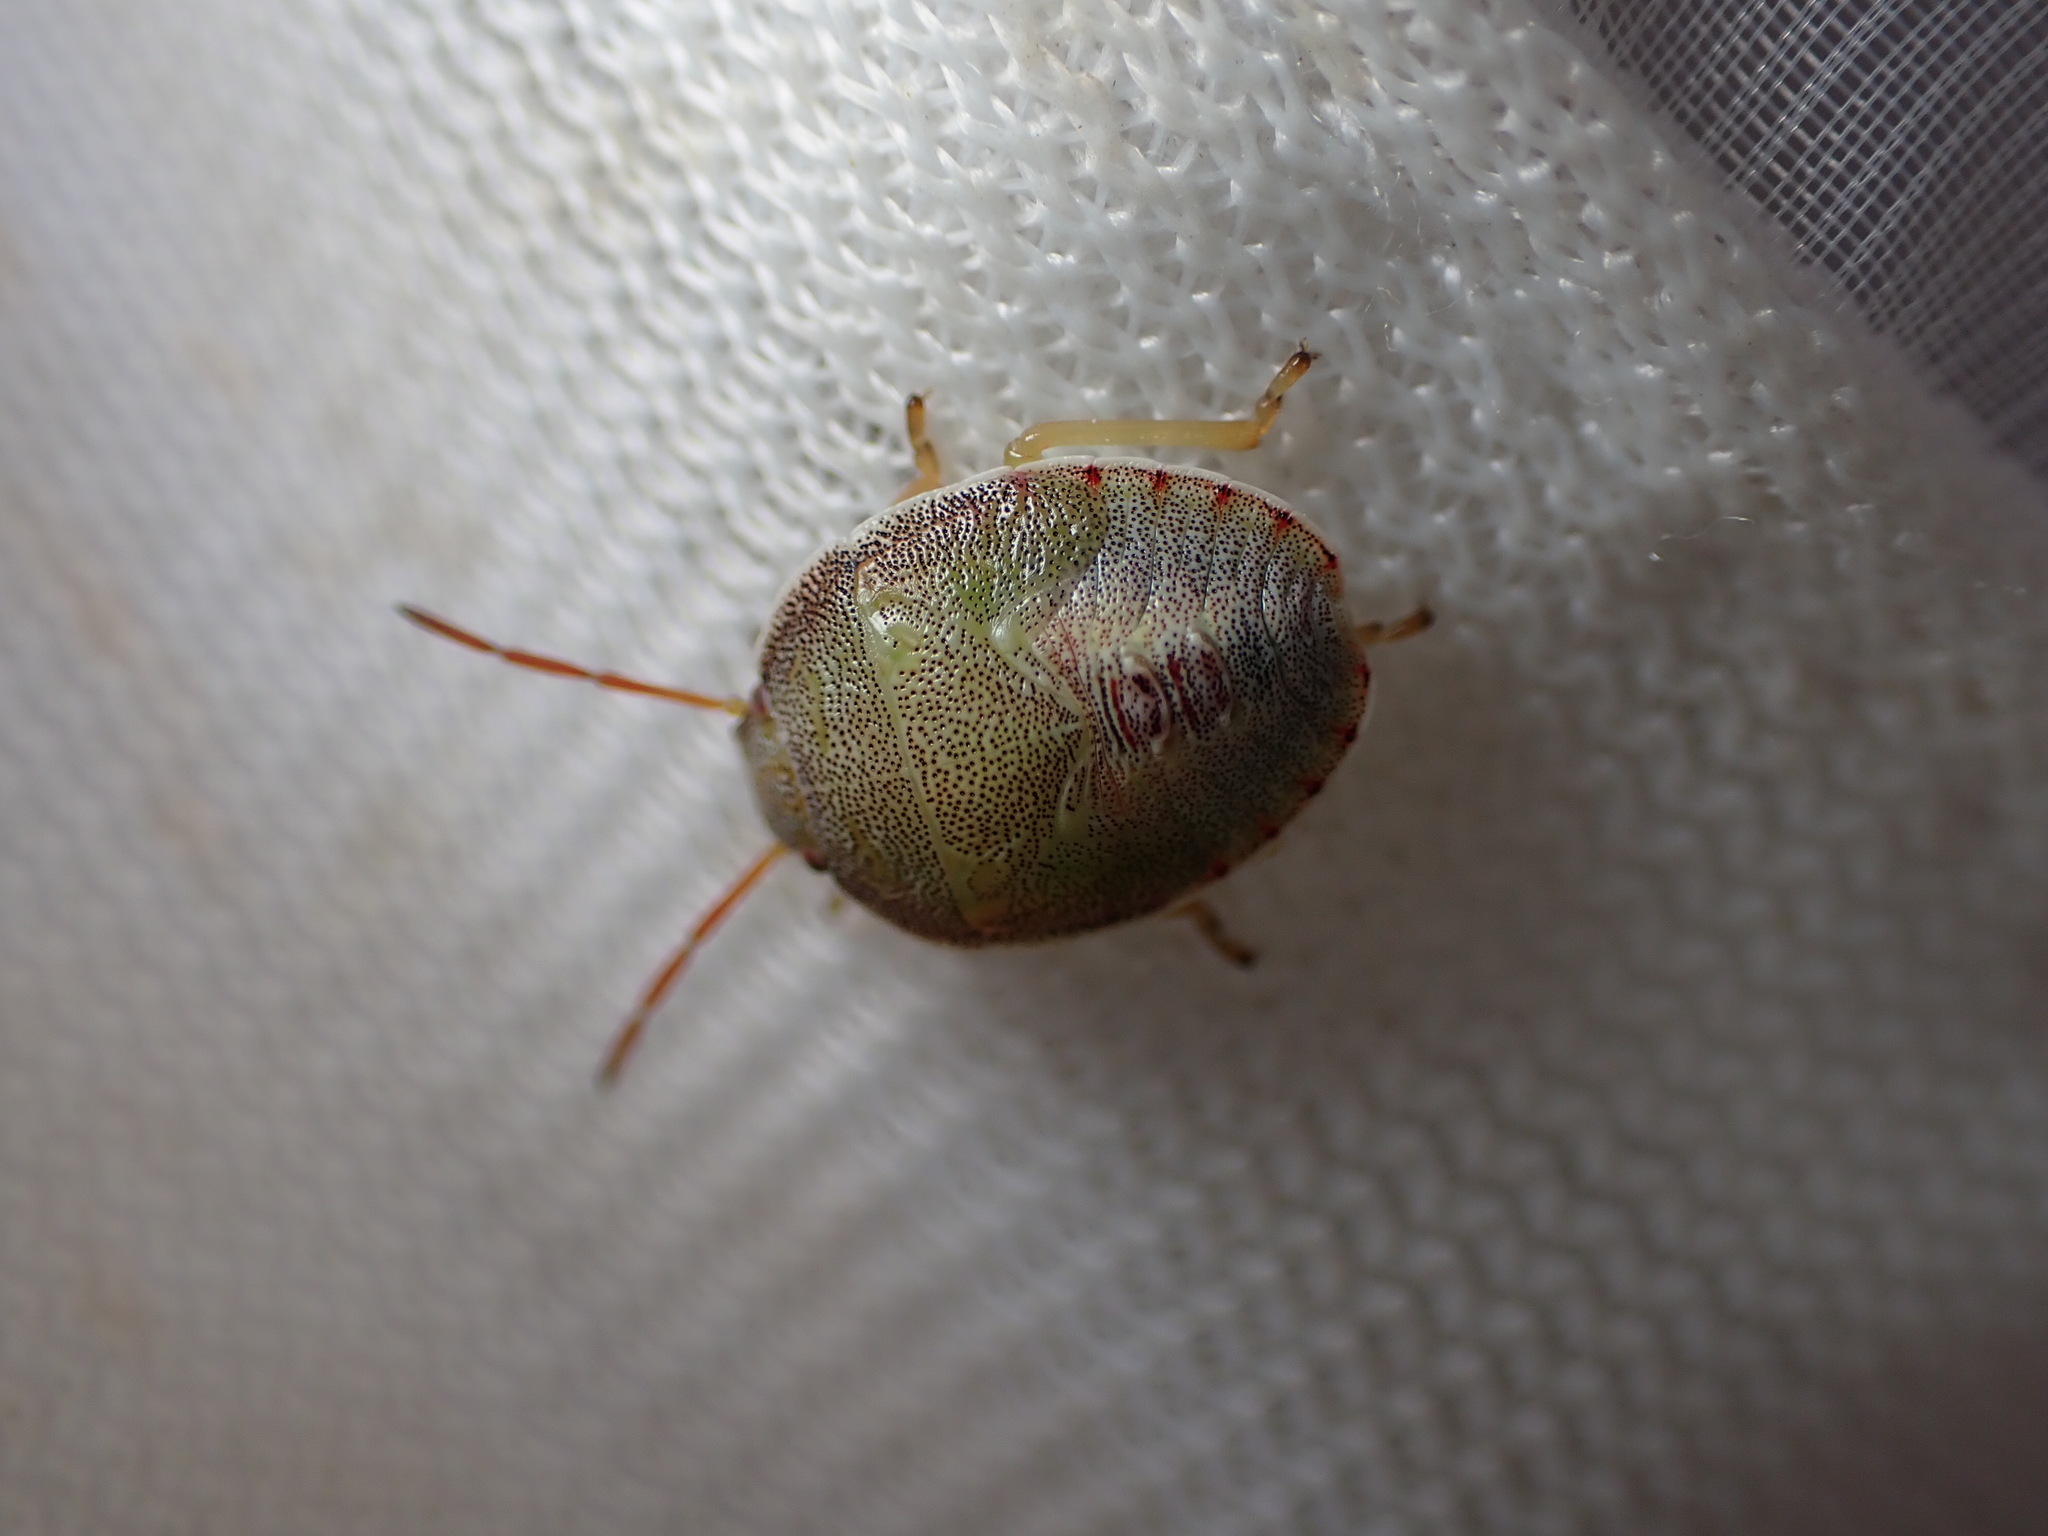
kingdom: Animalia
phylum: Arthropoda
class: Insecta
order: Hemiptera
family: Pentatomidae
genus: Piezodorus
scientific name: Piezodorus lituratus
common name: Stink bug
